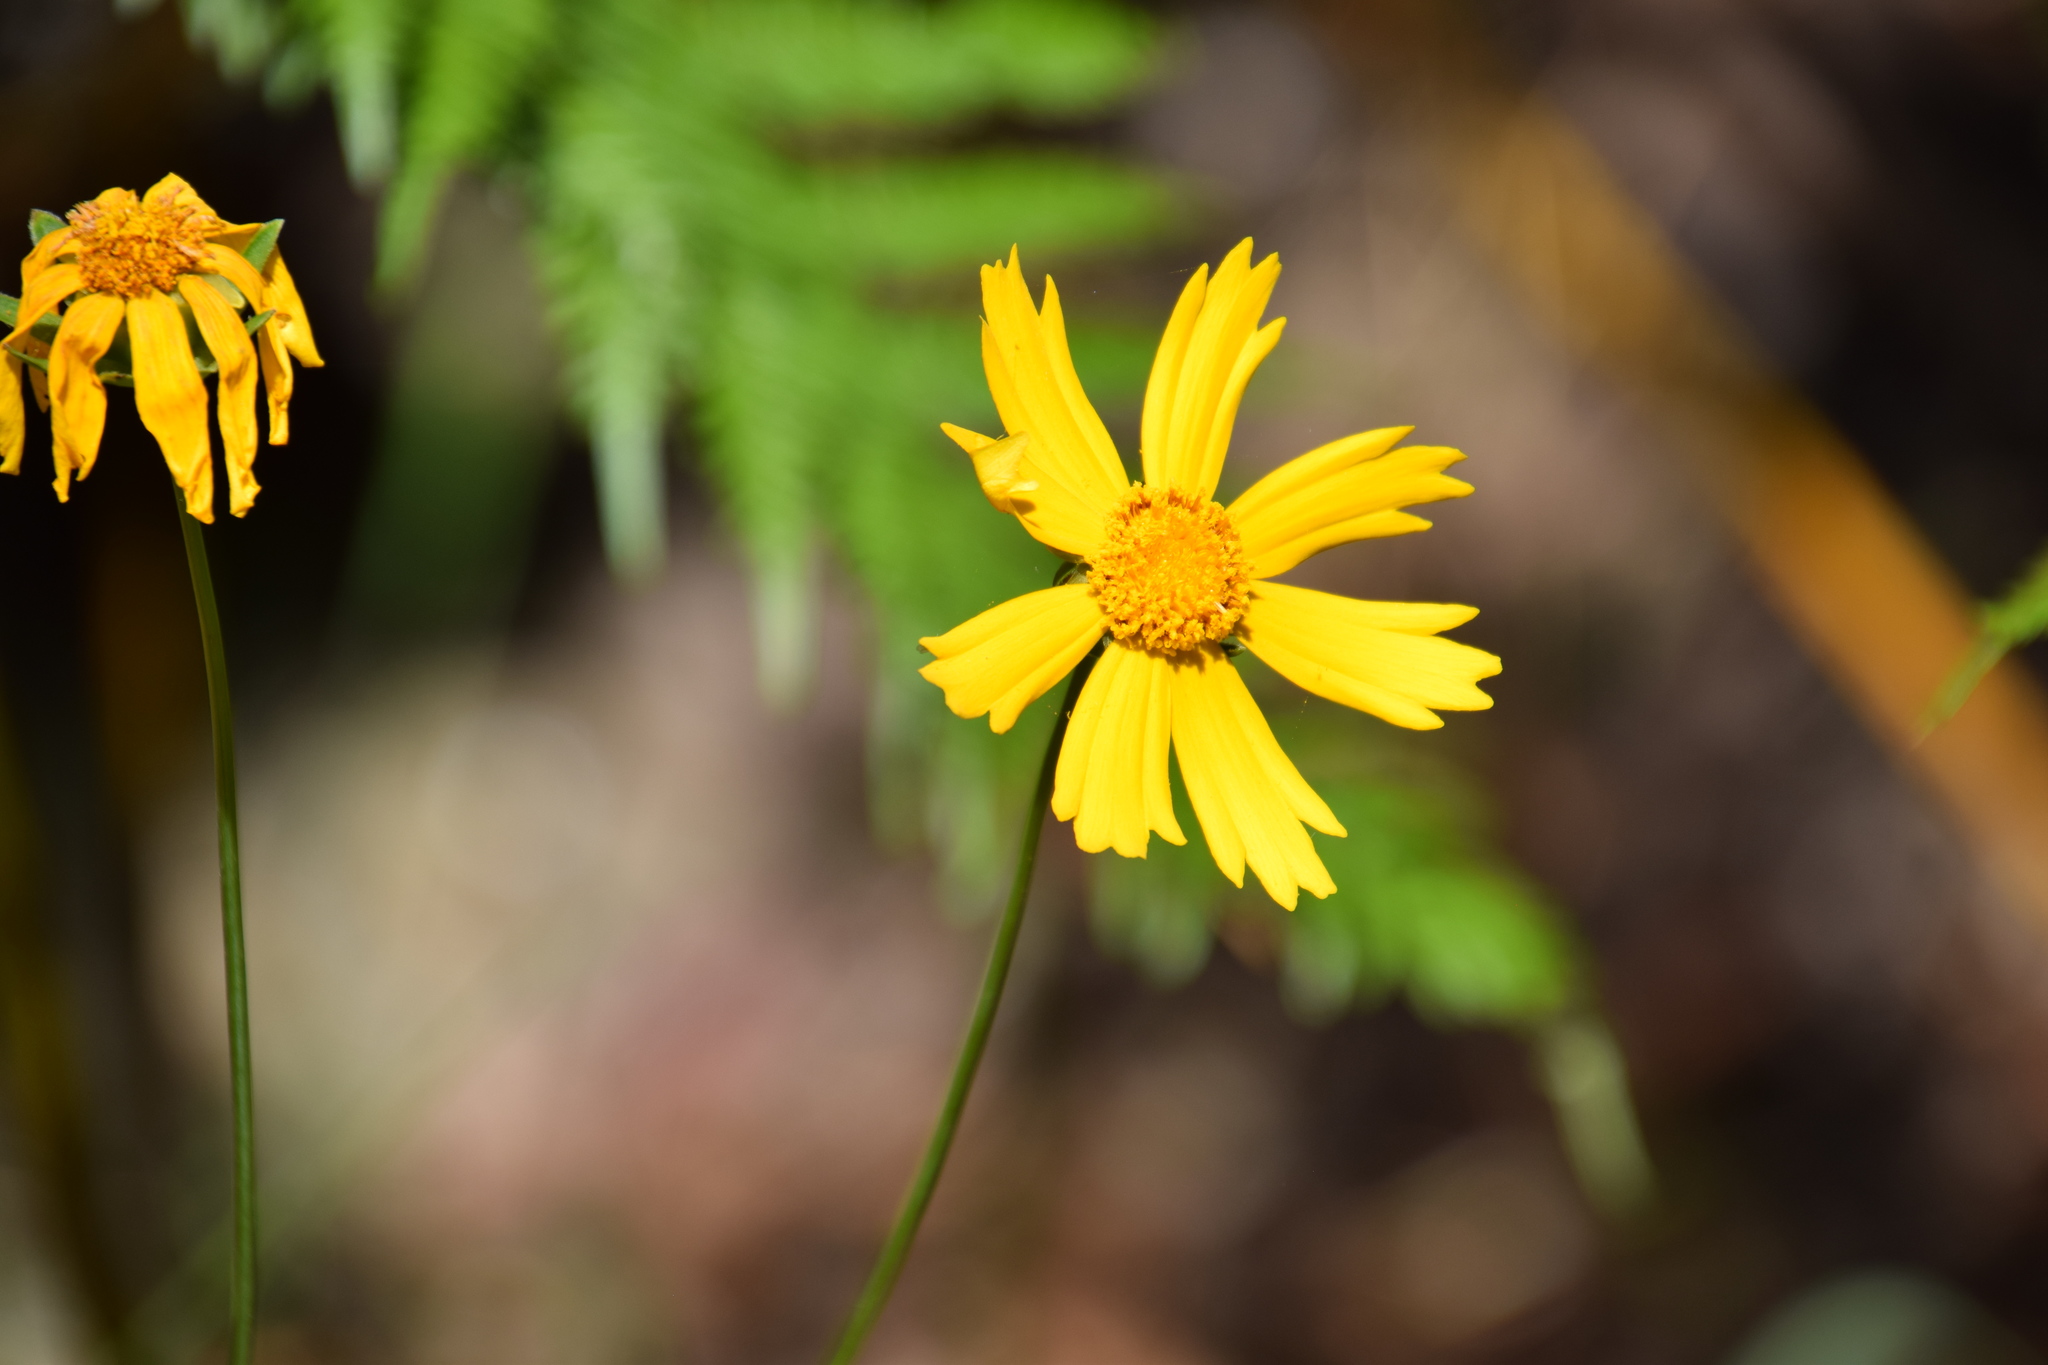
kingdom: Plantae
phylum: Tracheophyta
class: Magnoliopsida
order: Asterales
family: Asteraceae
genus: Coreopsis
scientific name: Coreopsis lanceolata
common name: Garden coreopsis
